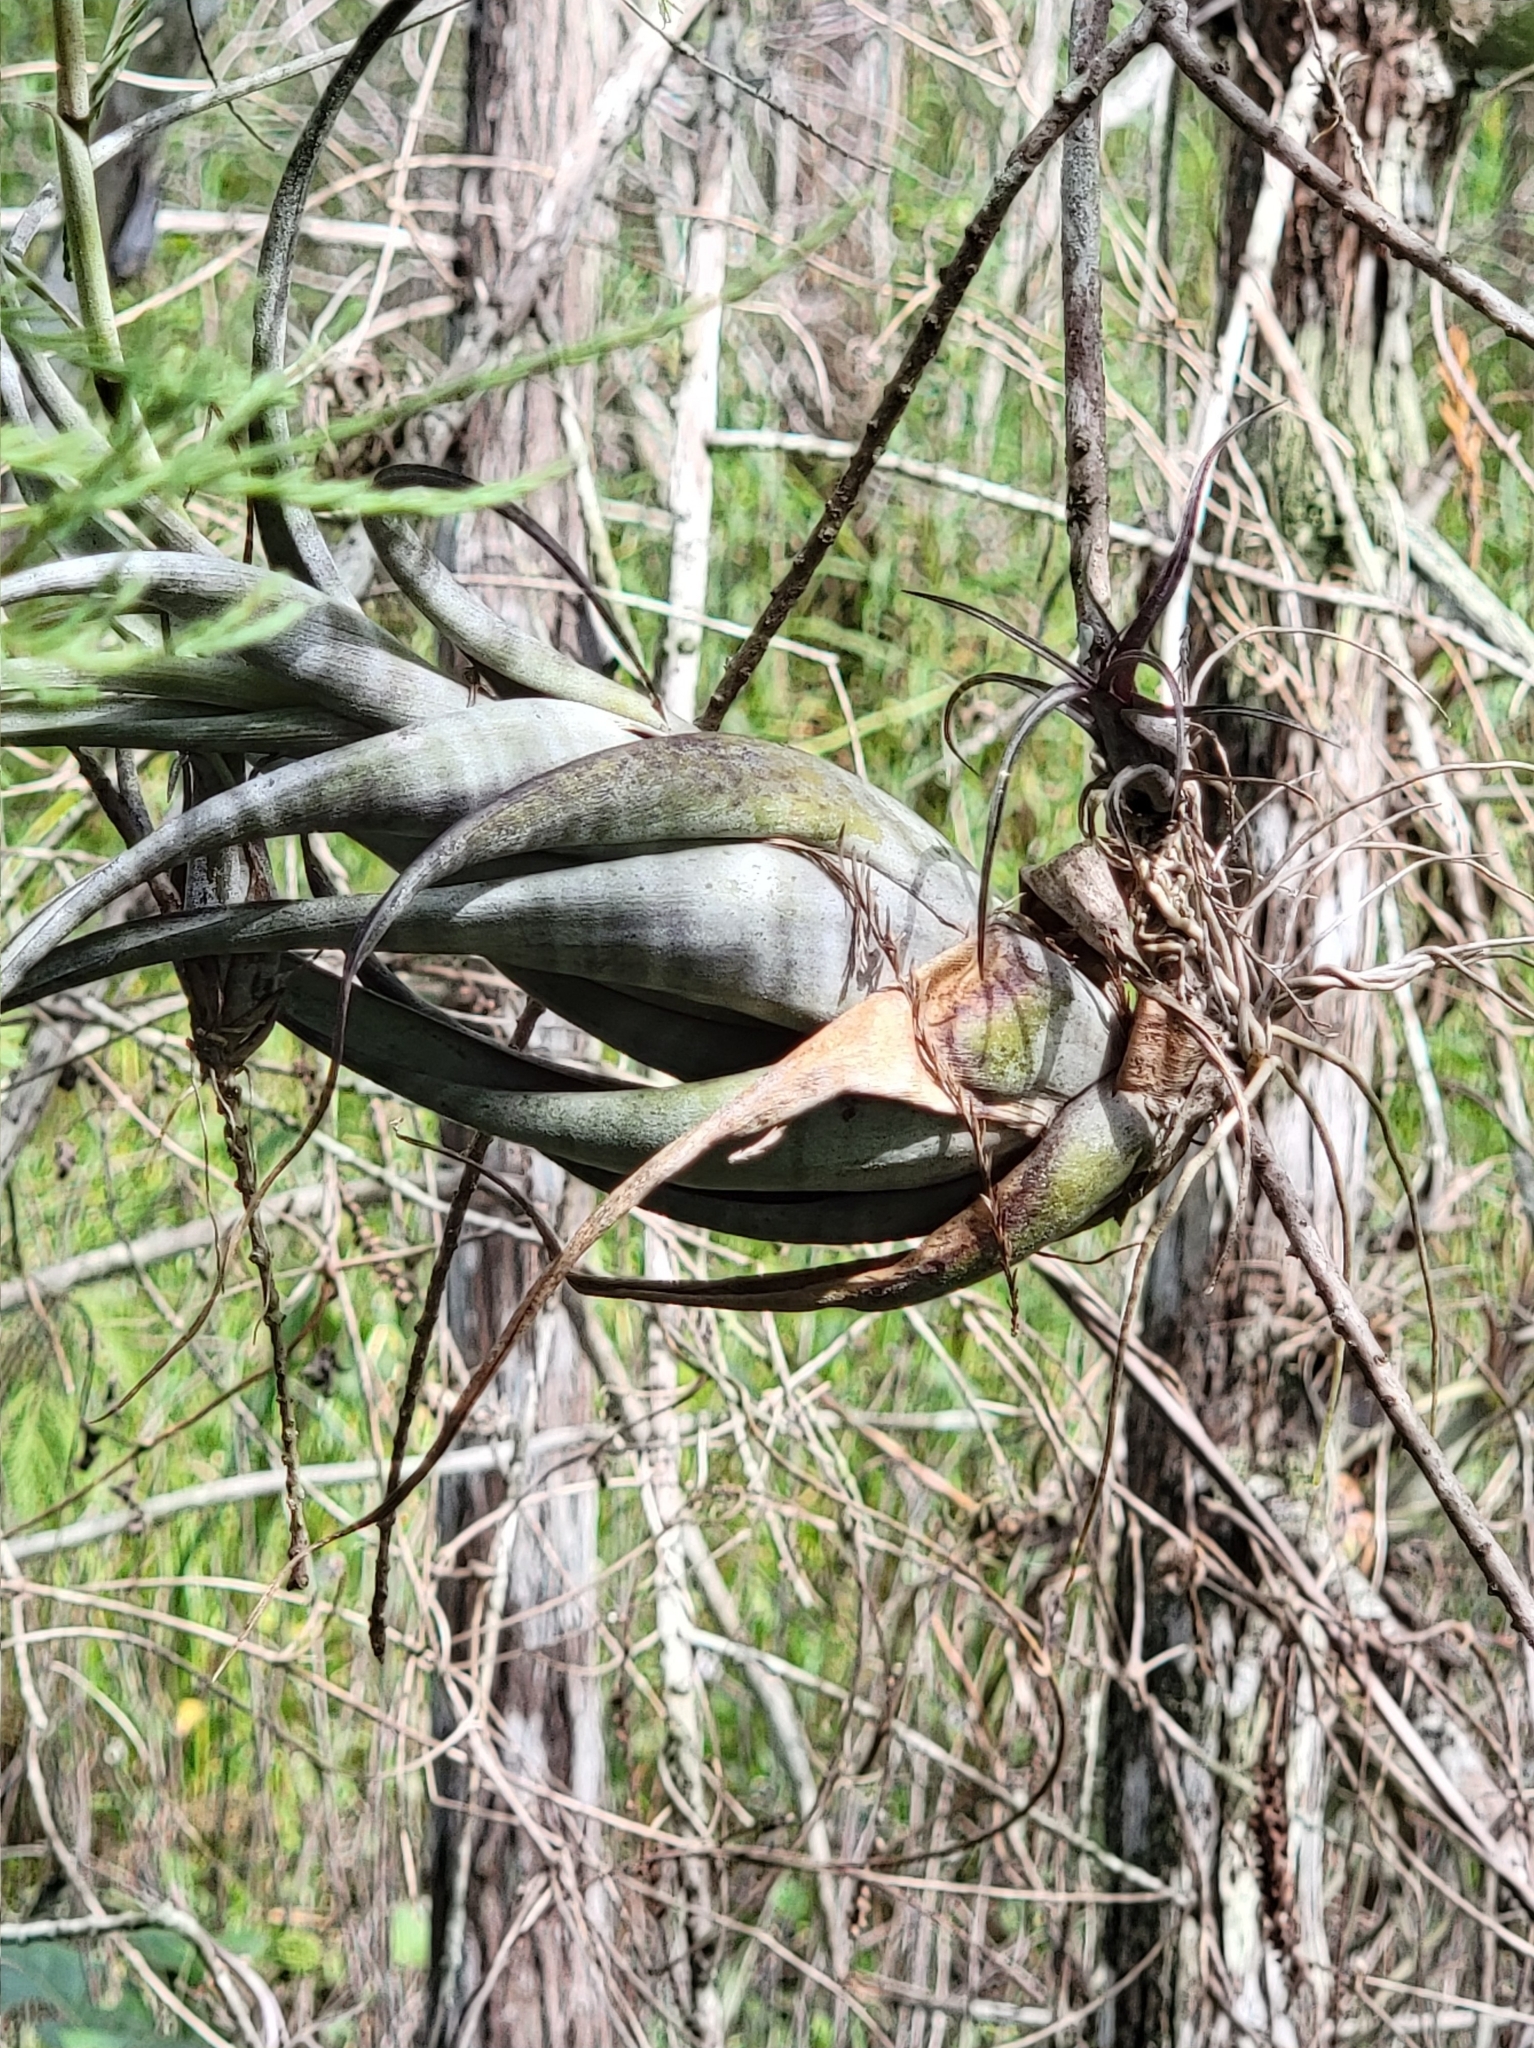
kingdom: Plantae
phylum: Tracheophyta
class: Liliopsida
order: Poales
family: Bromeliaceae
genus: Tillandsia
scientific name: Tillandsia flexuosa
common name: Banded airplant
